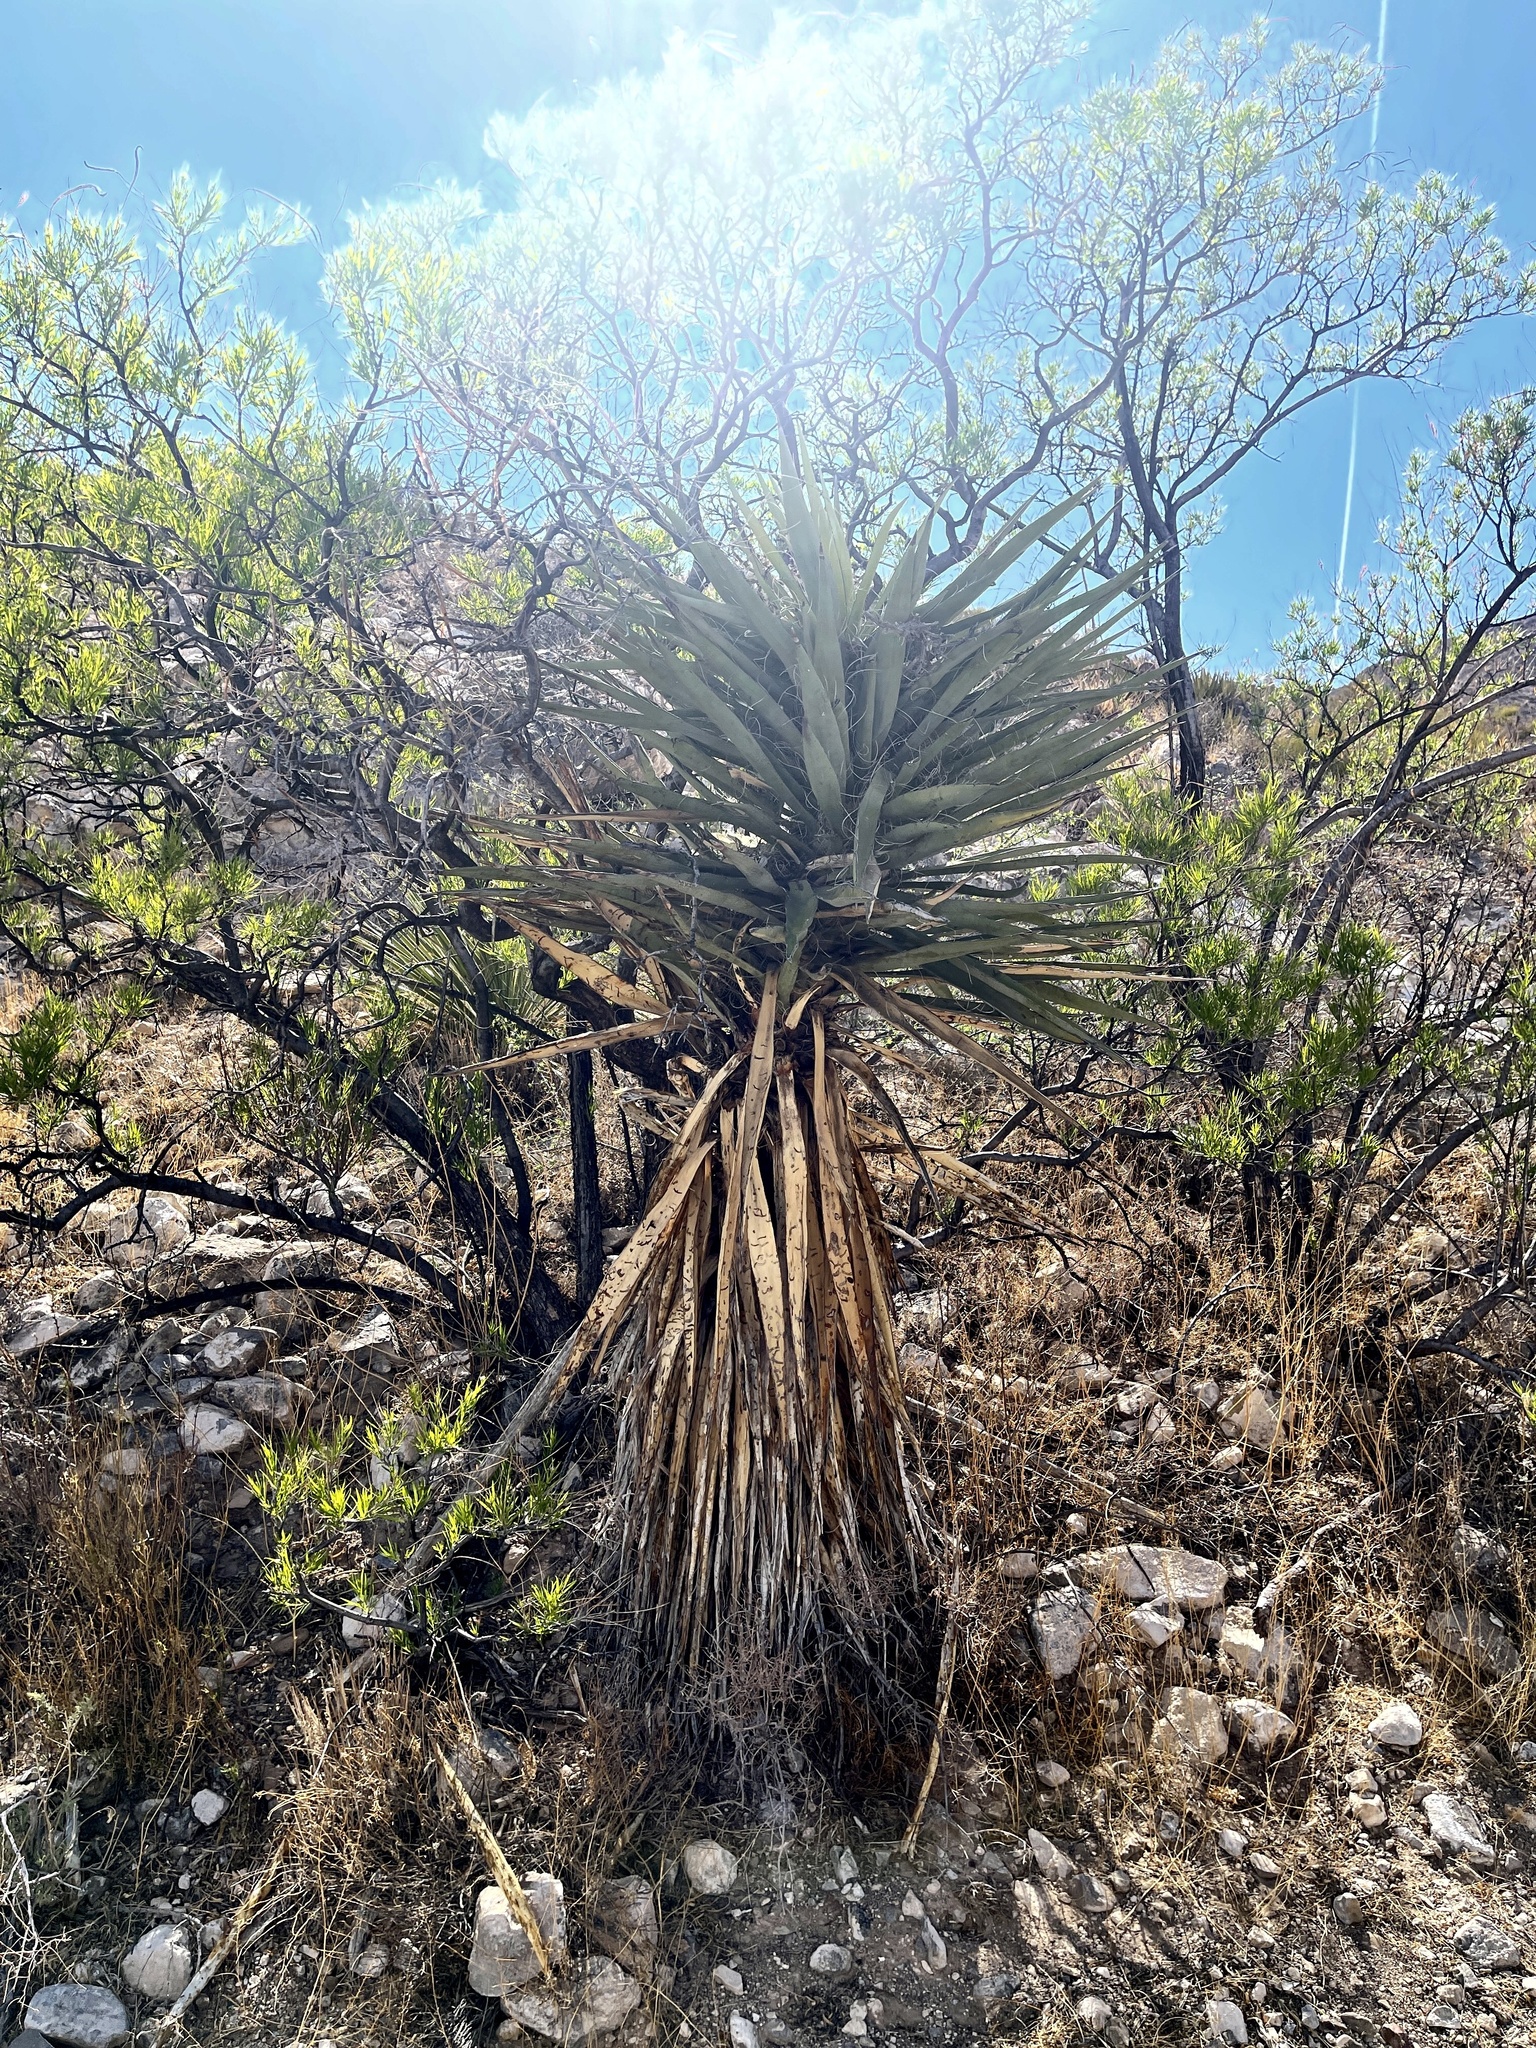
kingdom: Plantae
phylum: Tracheophyta
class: Liliopsida
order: Asparagales
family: Asparagaceae
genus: Yucca
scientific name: Yucca treculiana
